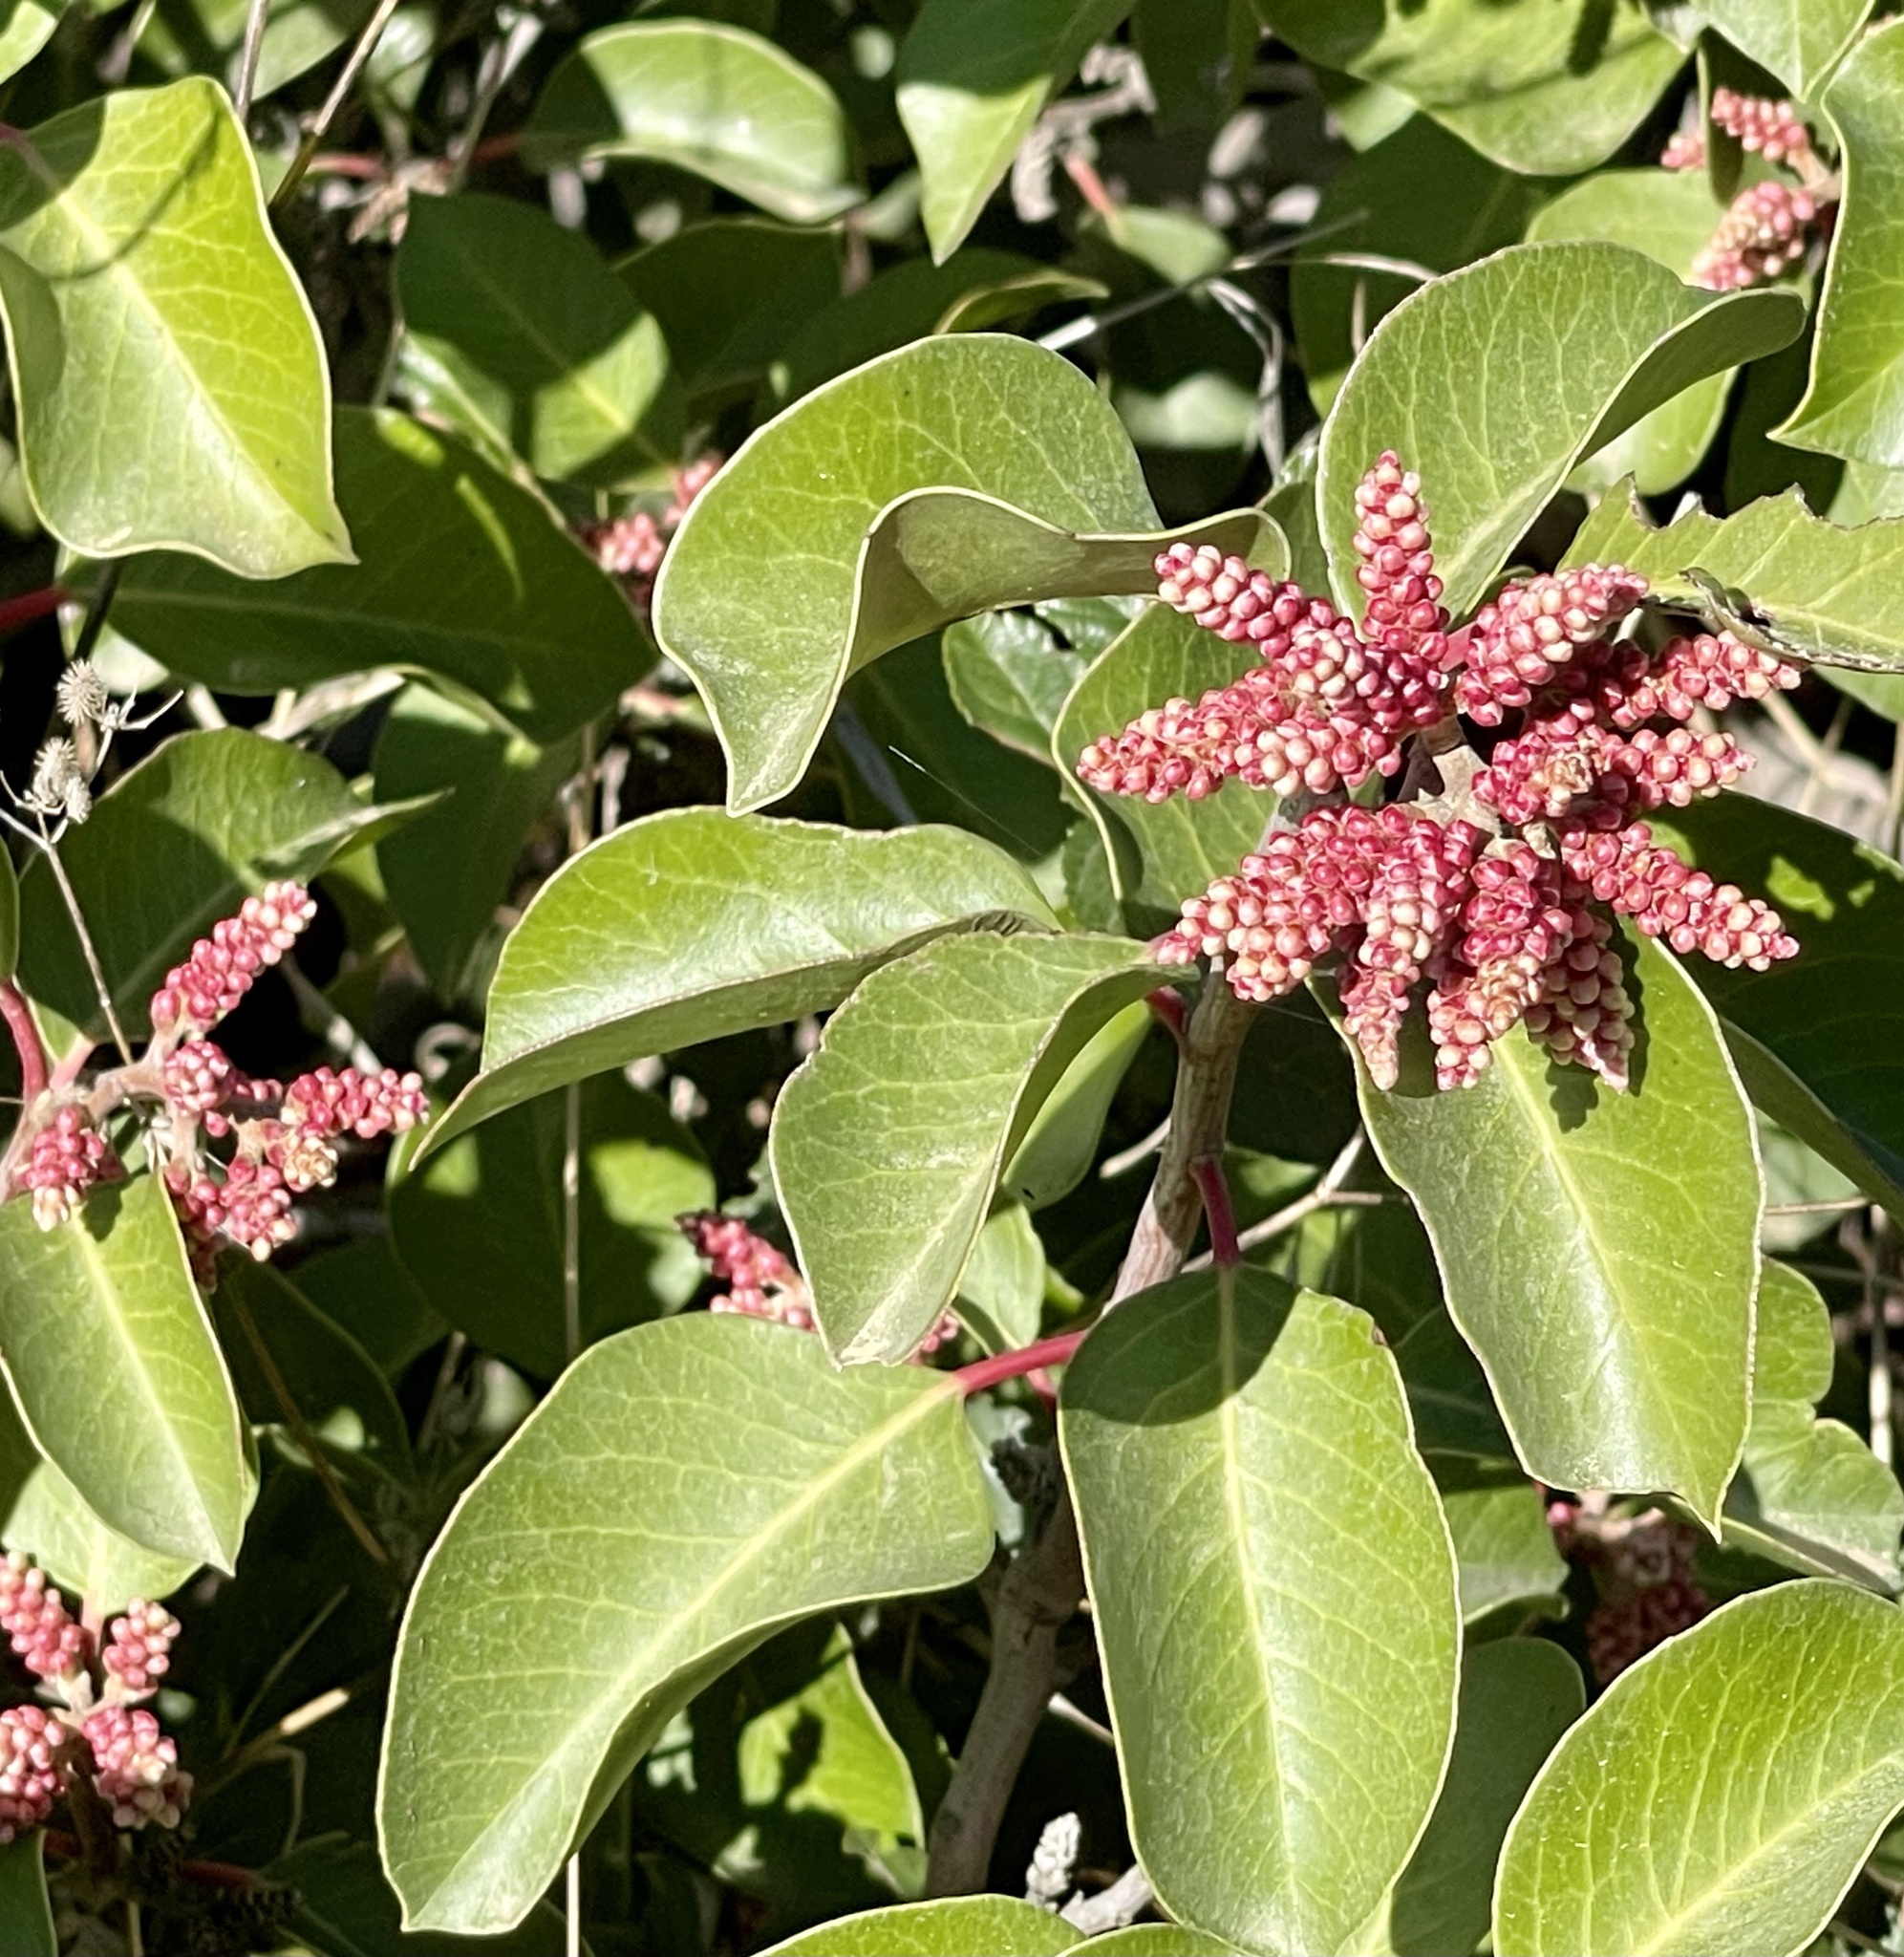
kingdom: Plantae
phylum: Tracheophyta
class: Magnoliopsida
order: Sapindales
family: Anacardiaceae
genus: Rhus
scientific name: Rhus ovata
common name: Sugar sumac
